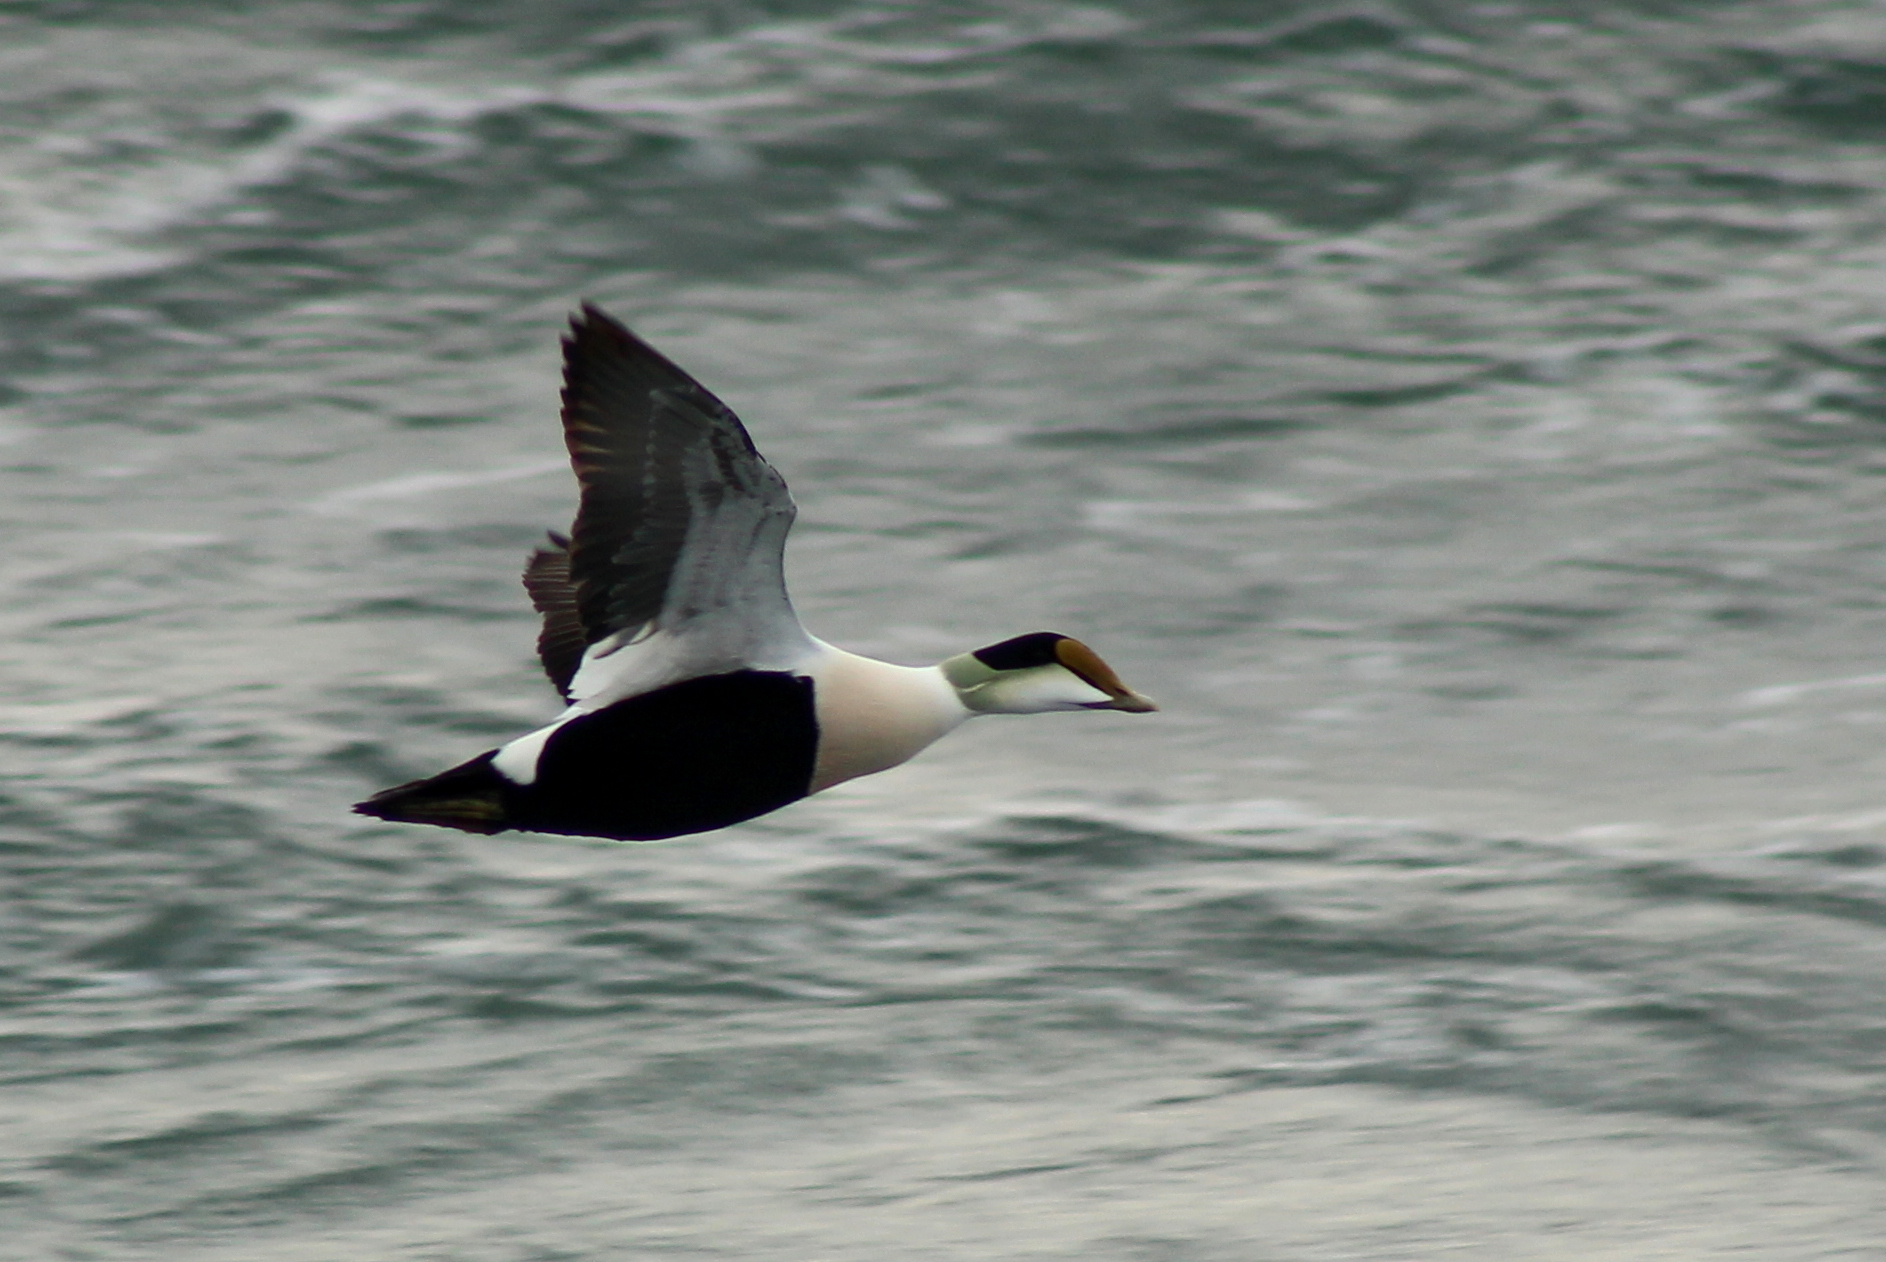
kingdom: Animalia
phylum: Chordata
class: Aves
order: Anseriformes
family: Anatidae
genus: Somateria
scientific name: Somateria mollissima
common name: Common eider
